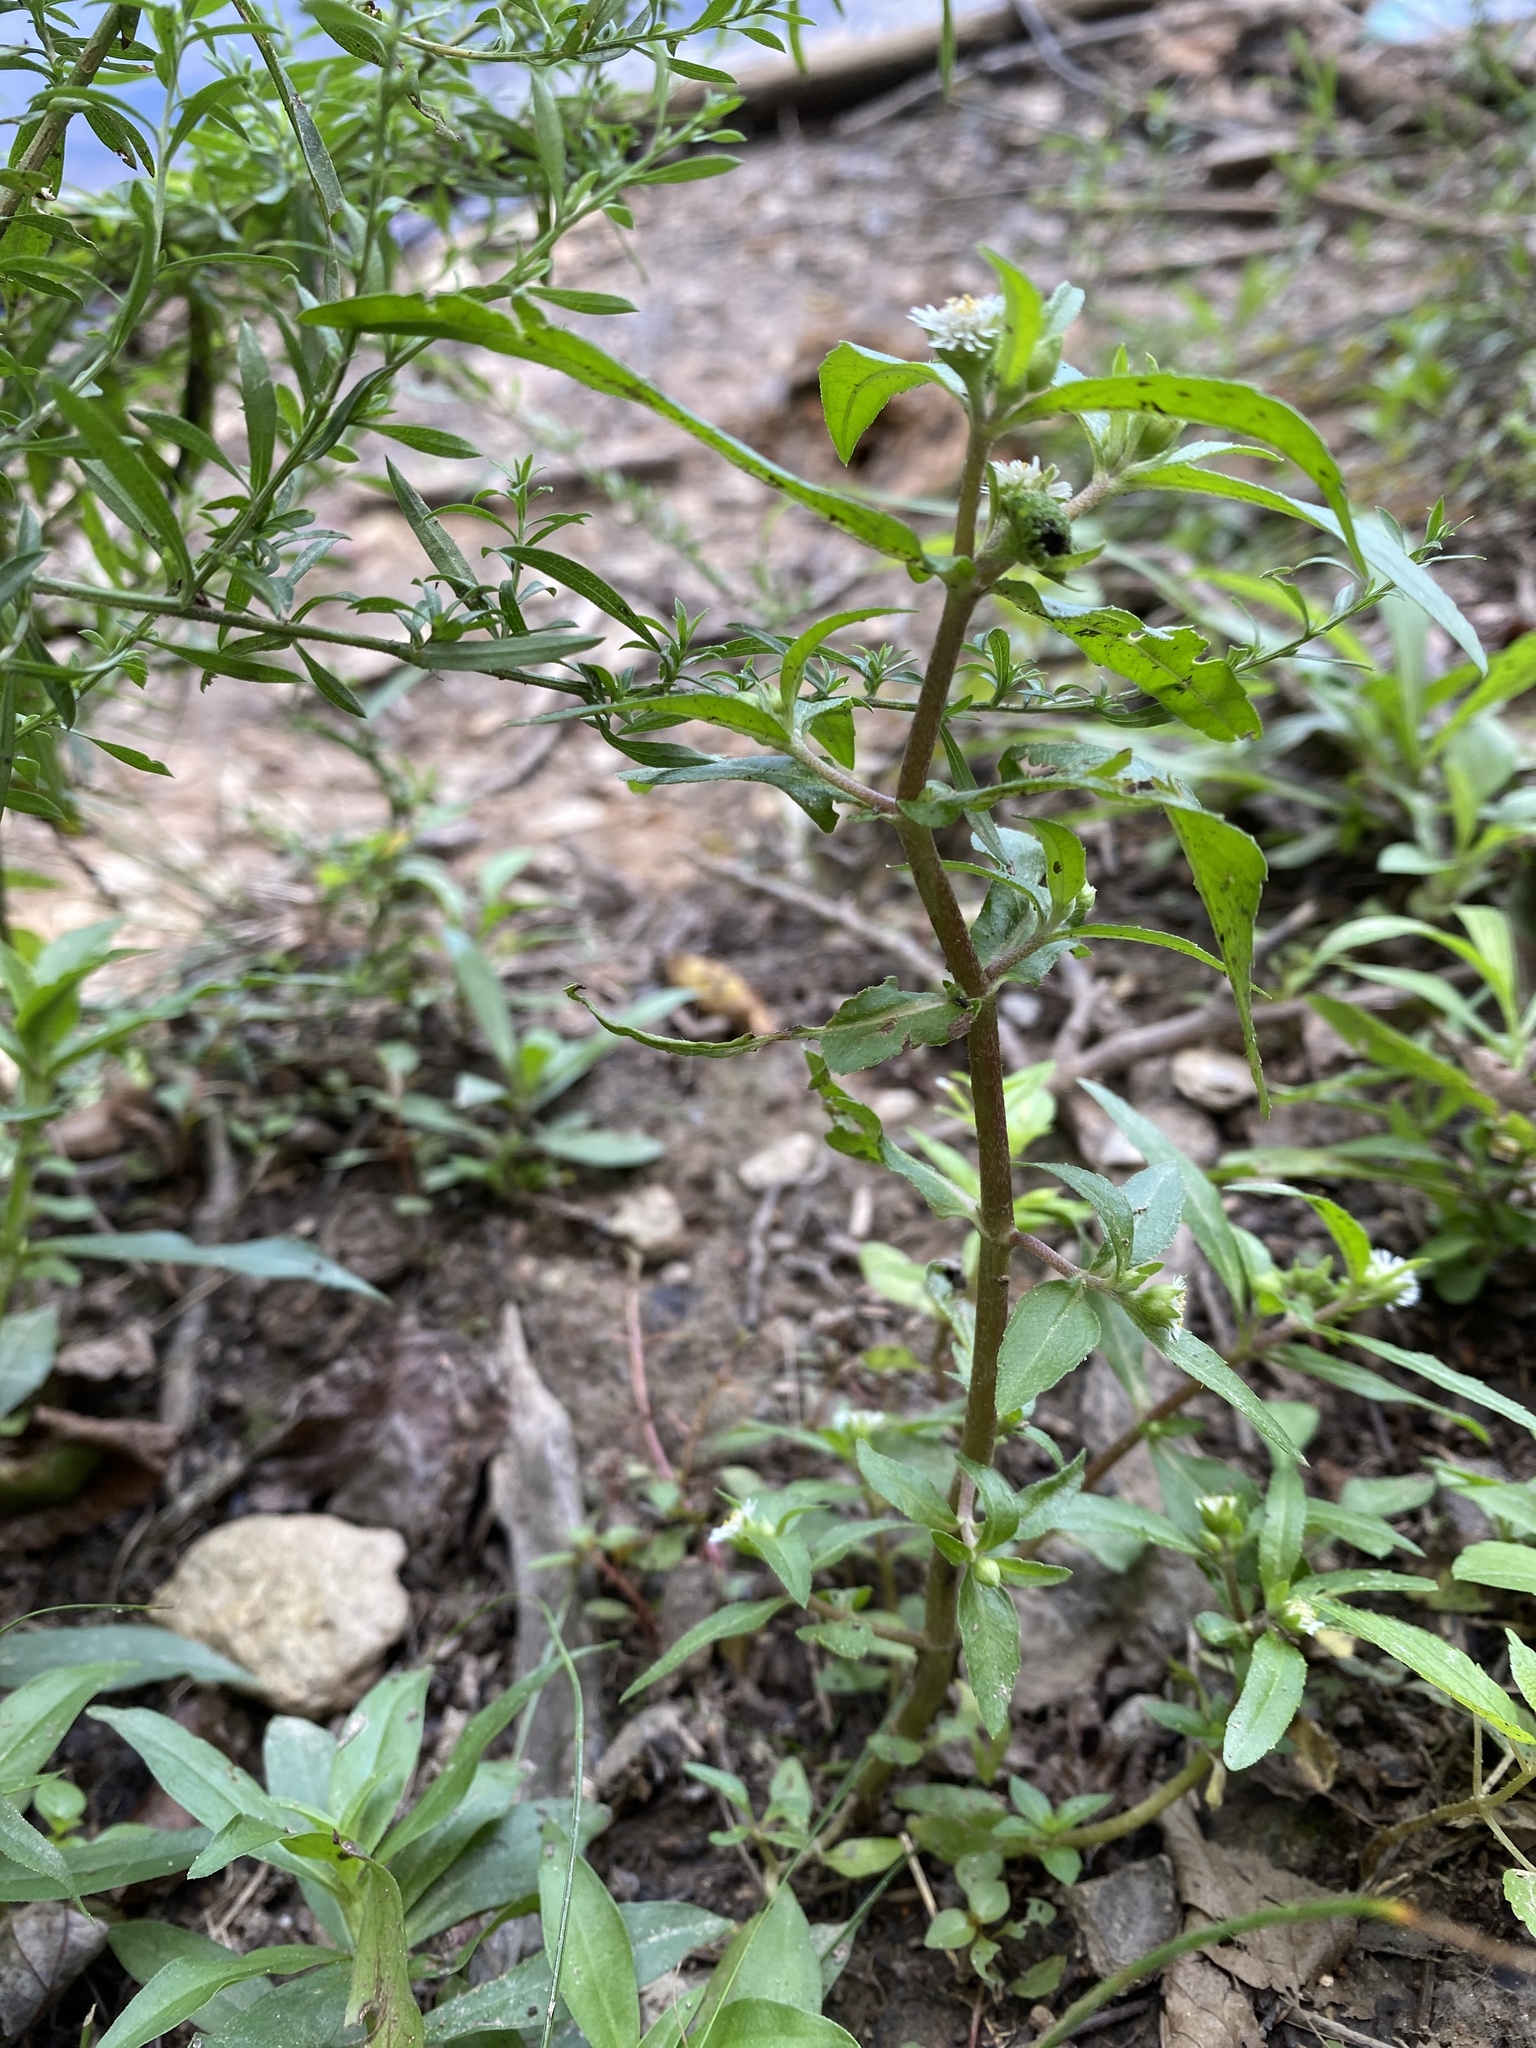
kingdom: Plantae
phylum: Tracheophyta
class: Magnoliopsida
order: Asterales
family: Asteraceae
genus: Eclipta
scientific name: Eclipta prostrata
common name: False daisy
